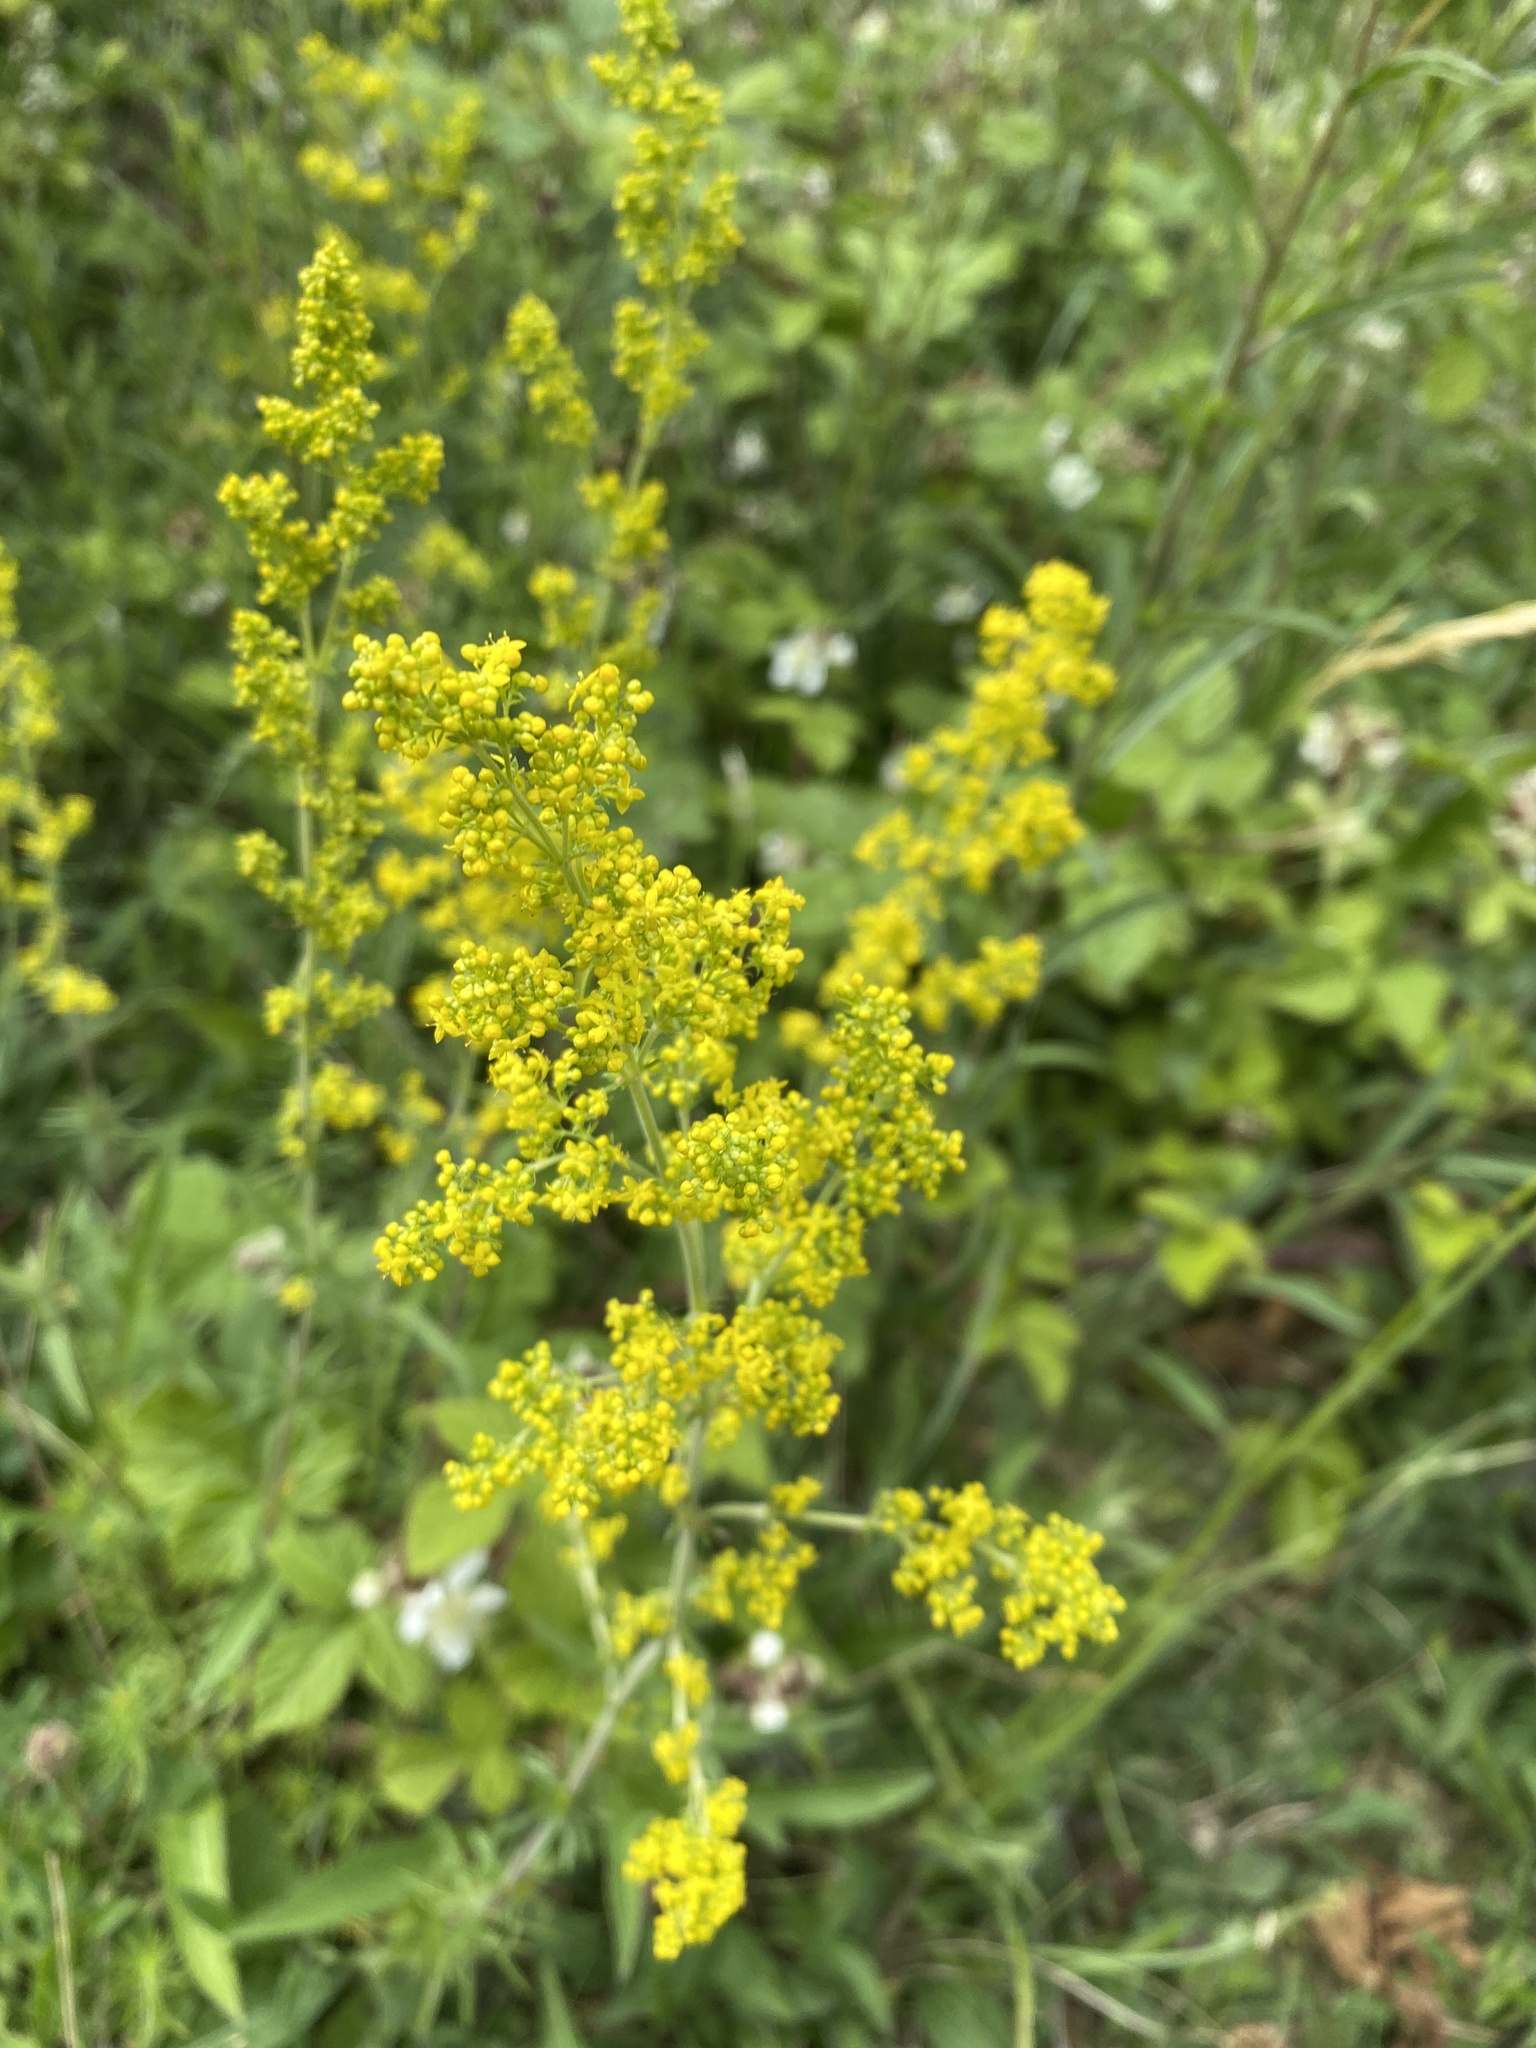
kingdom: Plantae
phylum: Tracheophyta
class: Magnoliopsida
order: Gentianales
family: Rubiaceae
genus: Galium
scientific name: Galium verum
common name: Lady's bedstraw
